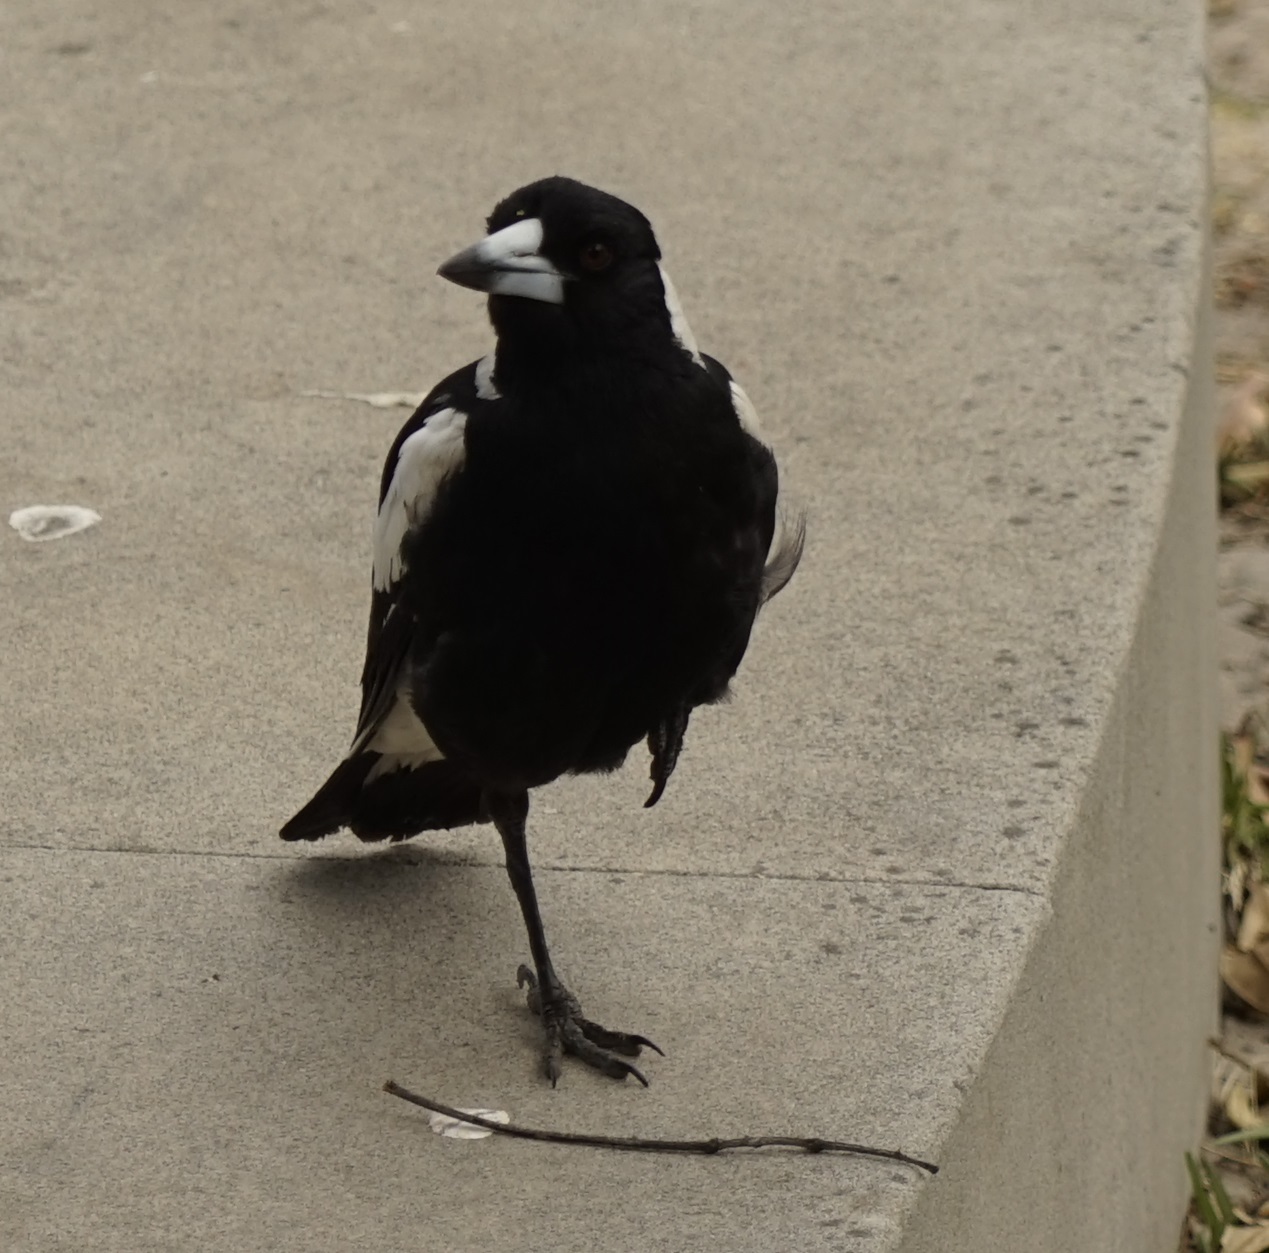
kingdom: Animalia
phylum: Chordata
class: Aves
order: Passeriformes
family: Cracticidae
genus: Gymnorhina
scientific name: Gymnorhina tibicen
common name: Australian magpie
